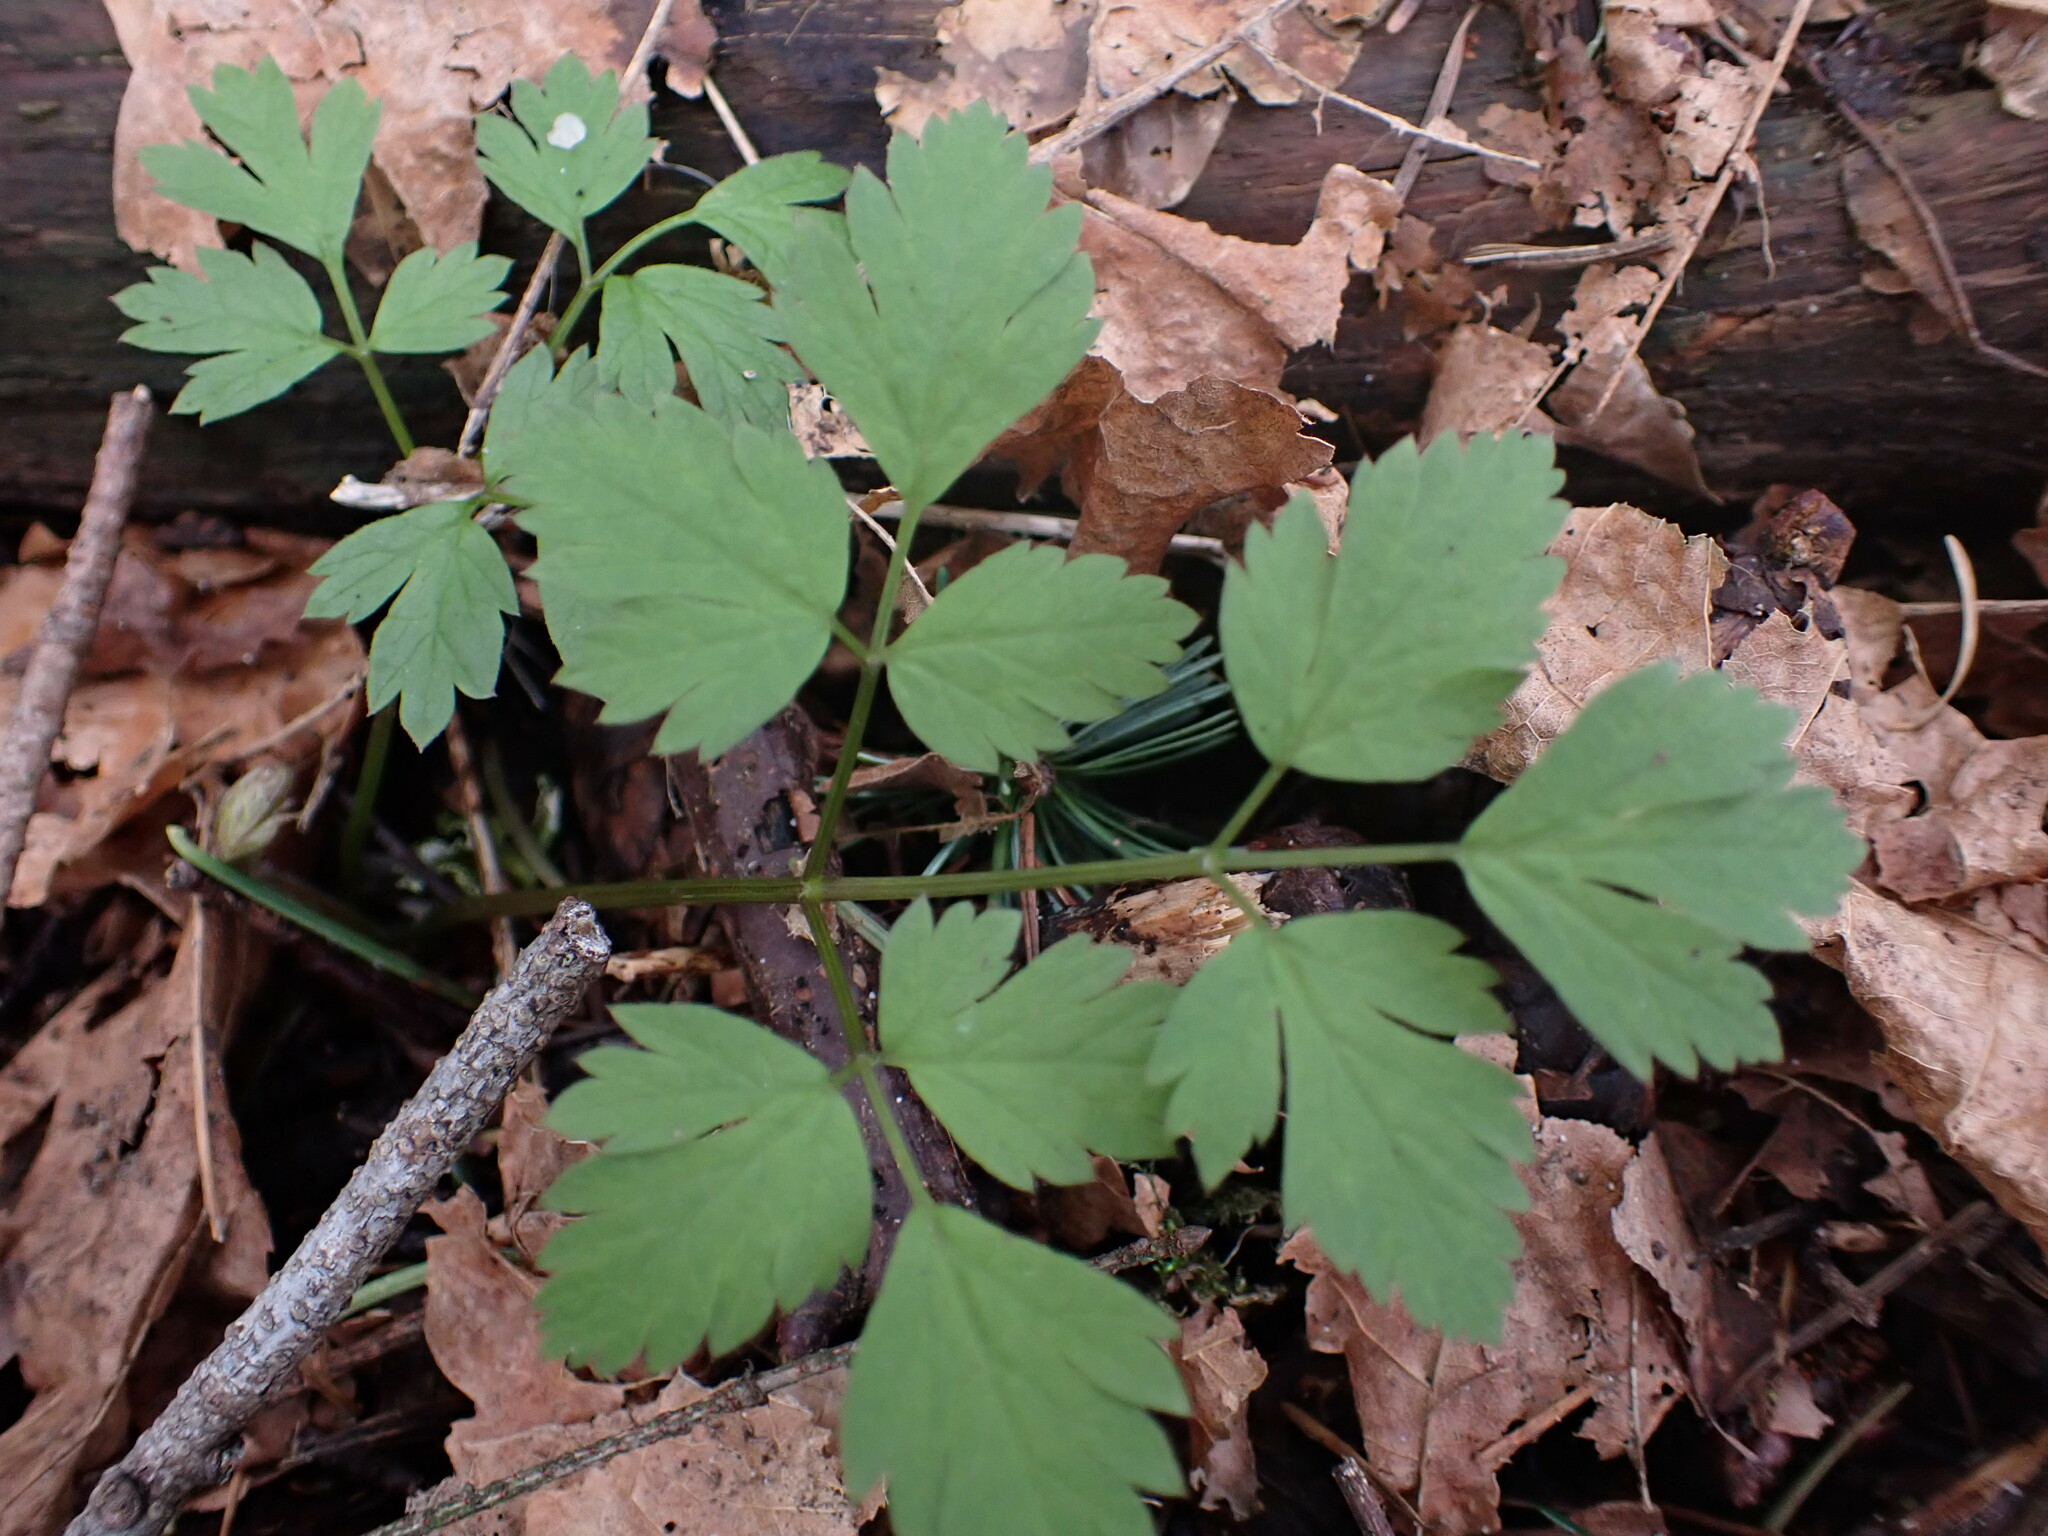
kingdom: Plantae
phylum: Tracheophyta
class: Magnoliopsida
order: Apiales
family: Apiaceae
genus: Osmorhiza
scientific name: Osmorhiza berteroi
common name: Mountain sweet cicely
